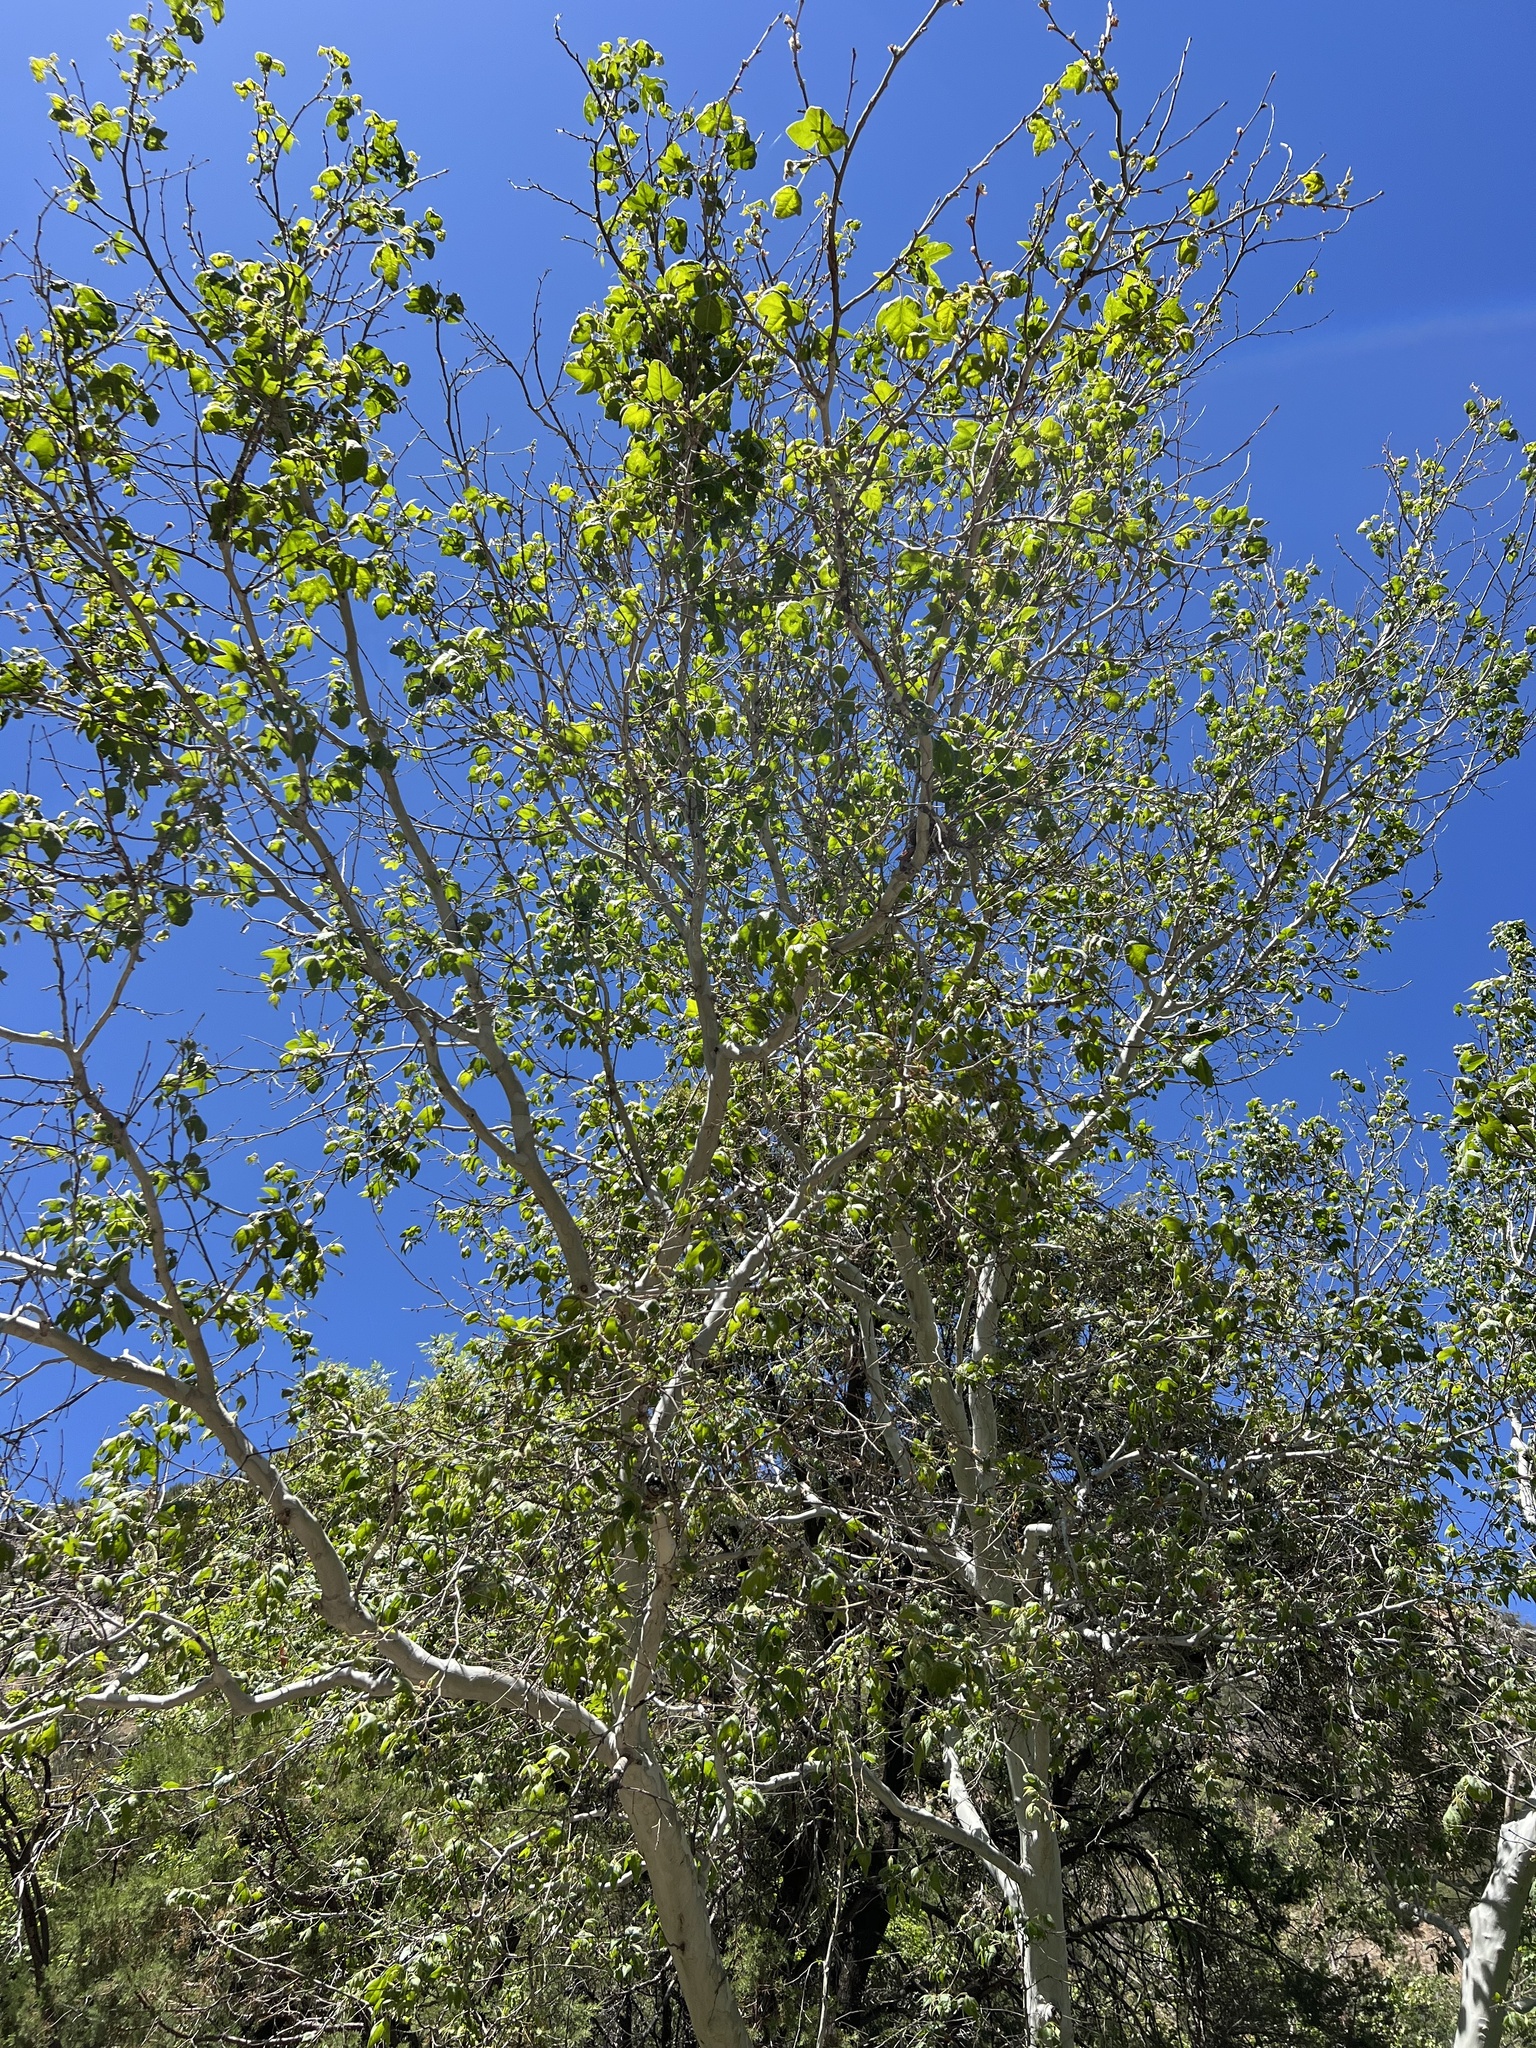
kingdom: Plantae
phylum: Tracheophyta
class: Magnoliopsida
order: Proteales
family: Platanaceae
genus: Platanus
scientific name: Platanus wrightii
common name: Arizona sycamore
